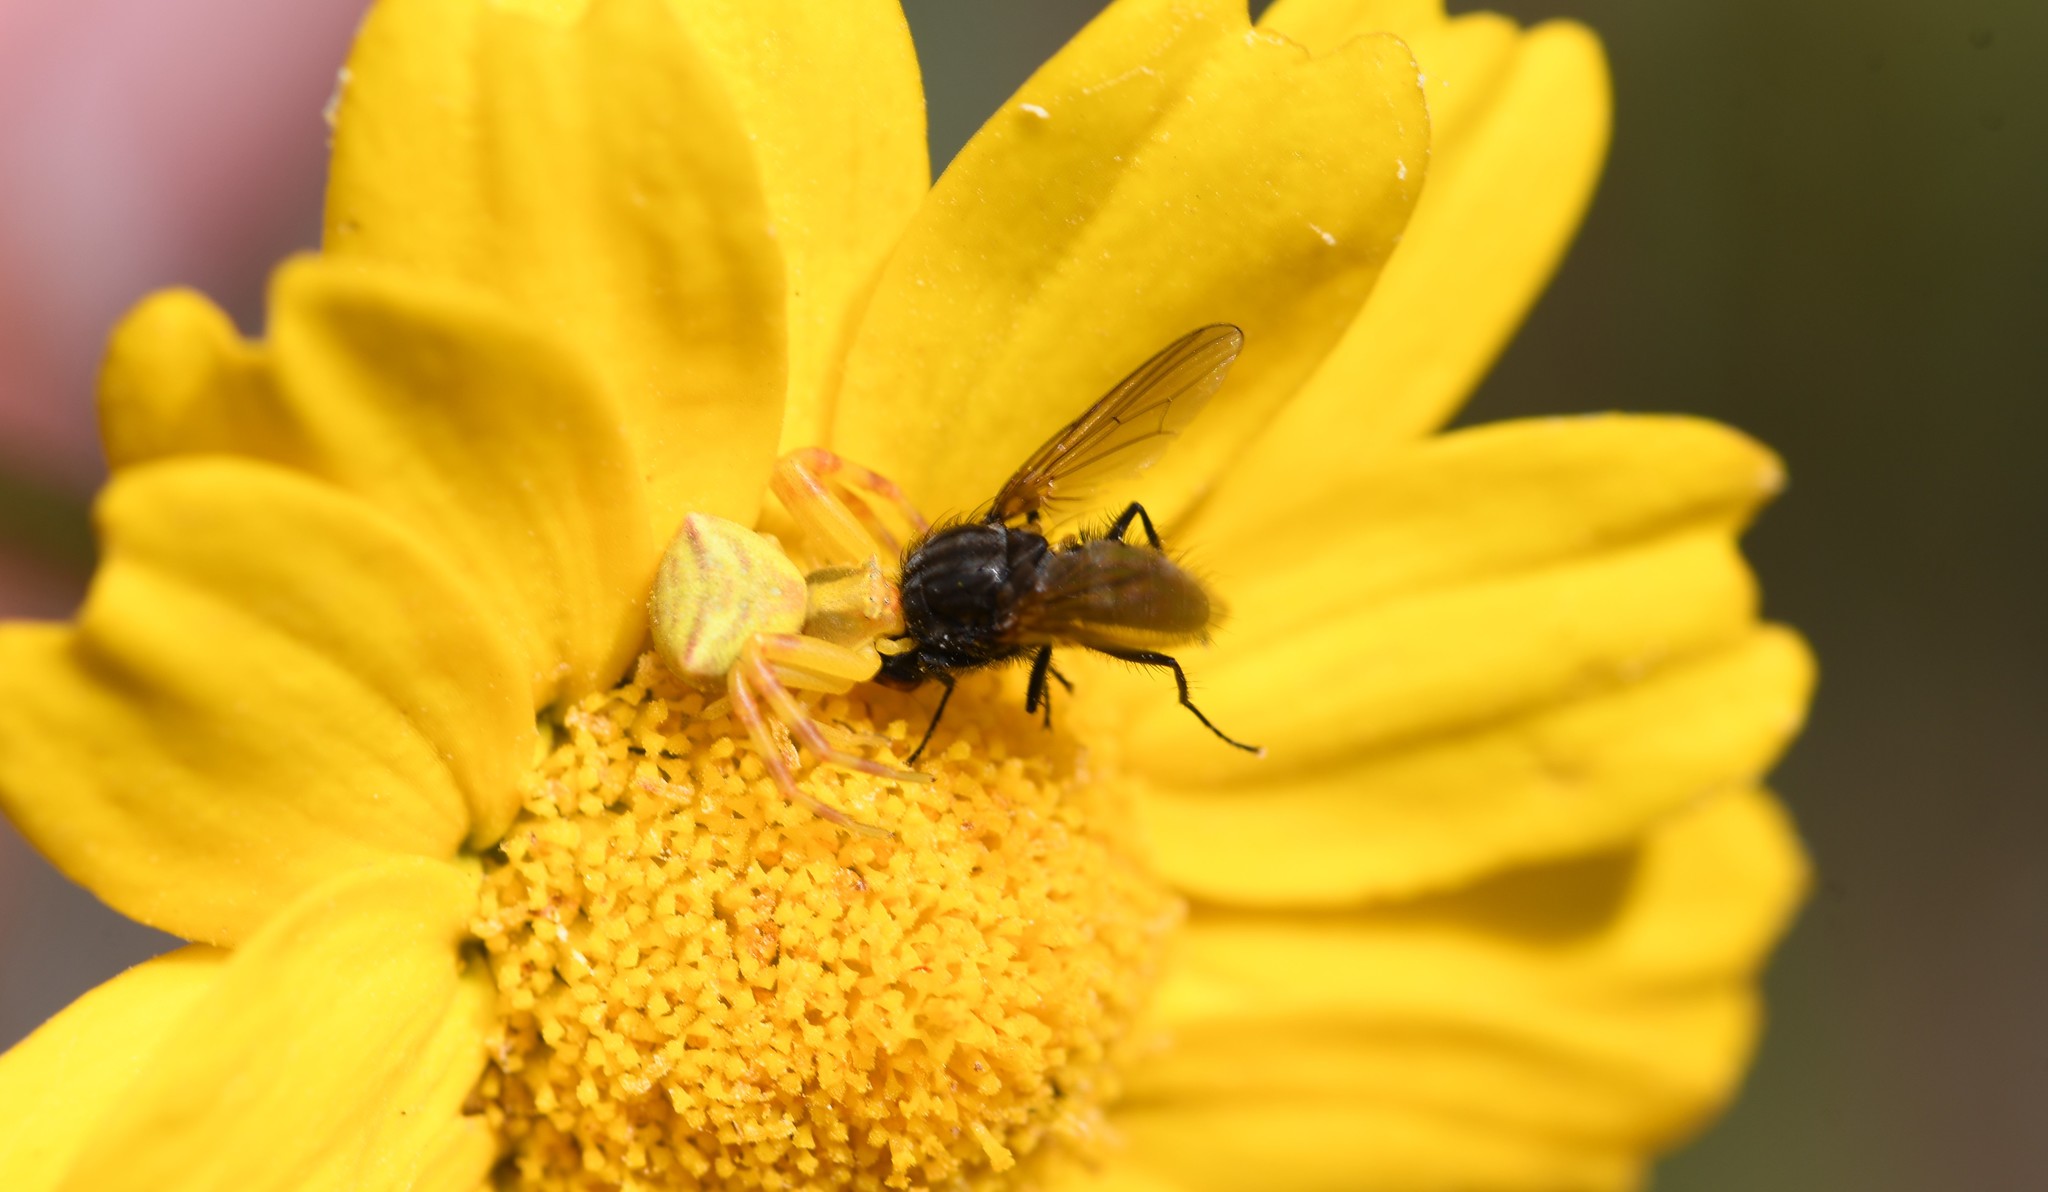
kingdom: Animalia
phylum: Arthropoda
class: Arachnida
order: Araneae
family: Thomisidae
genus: Thomisus
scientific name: Thomisus onustus
